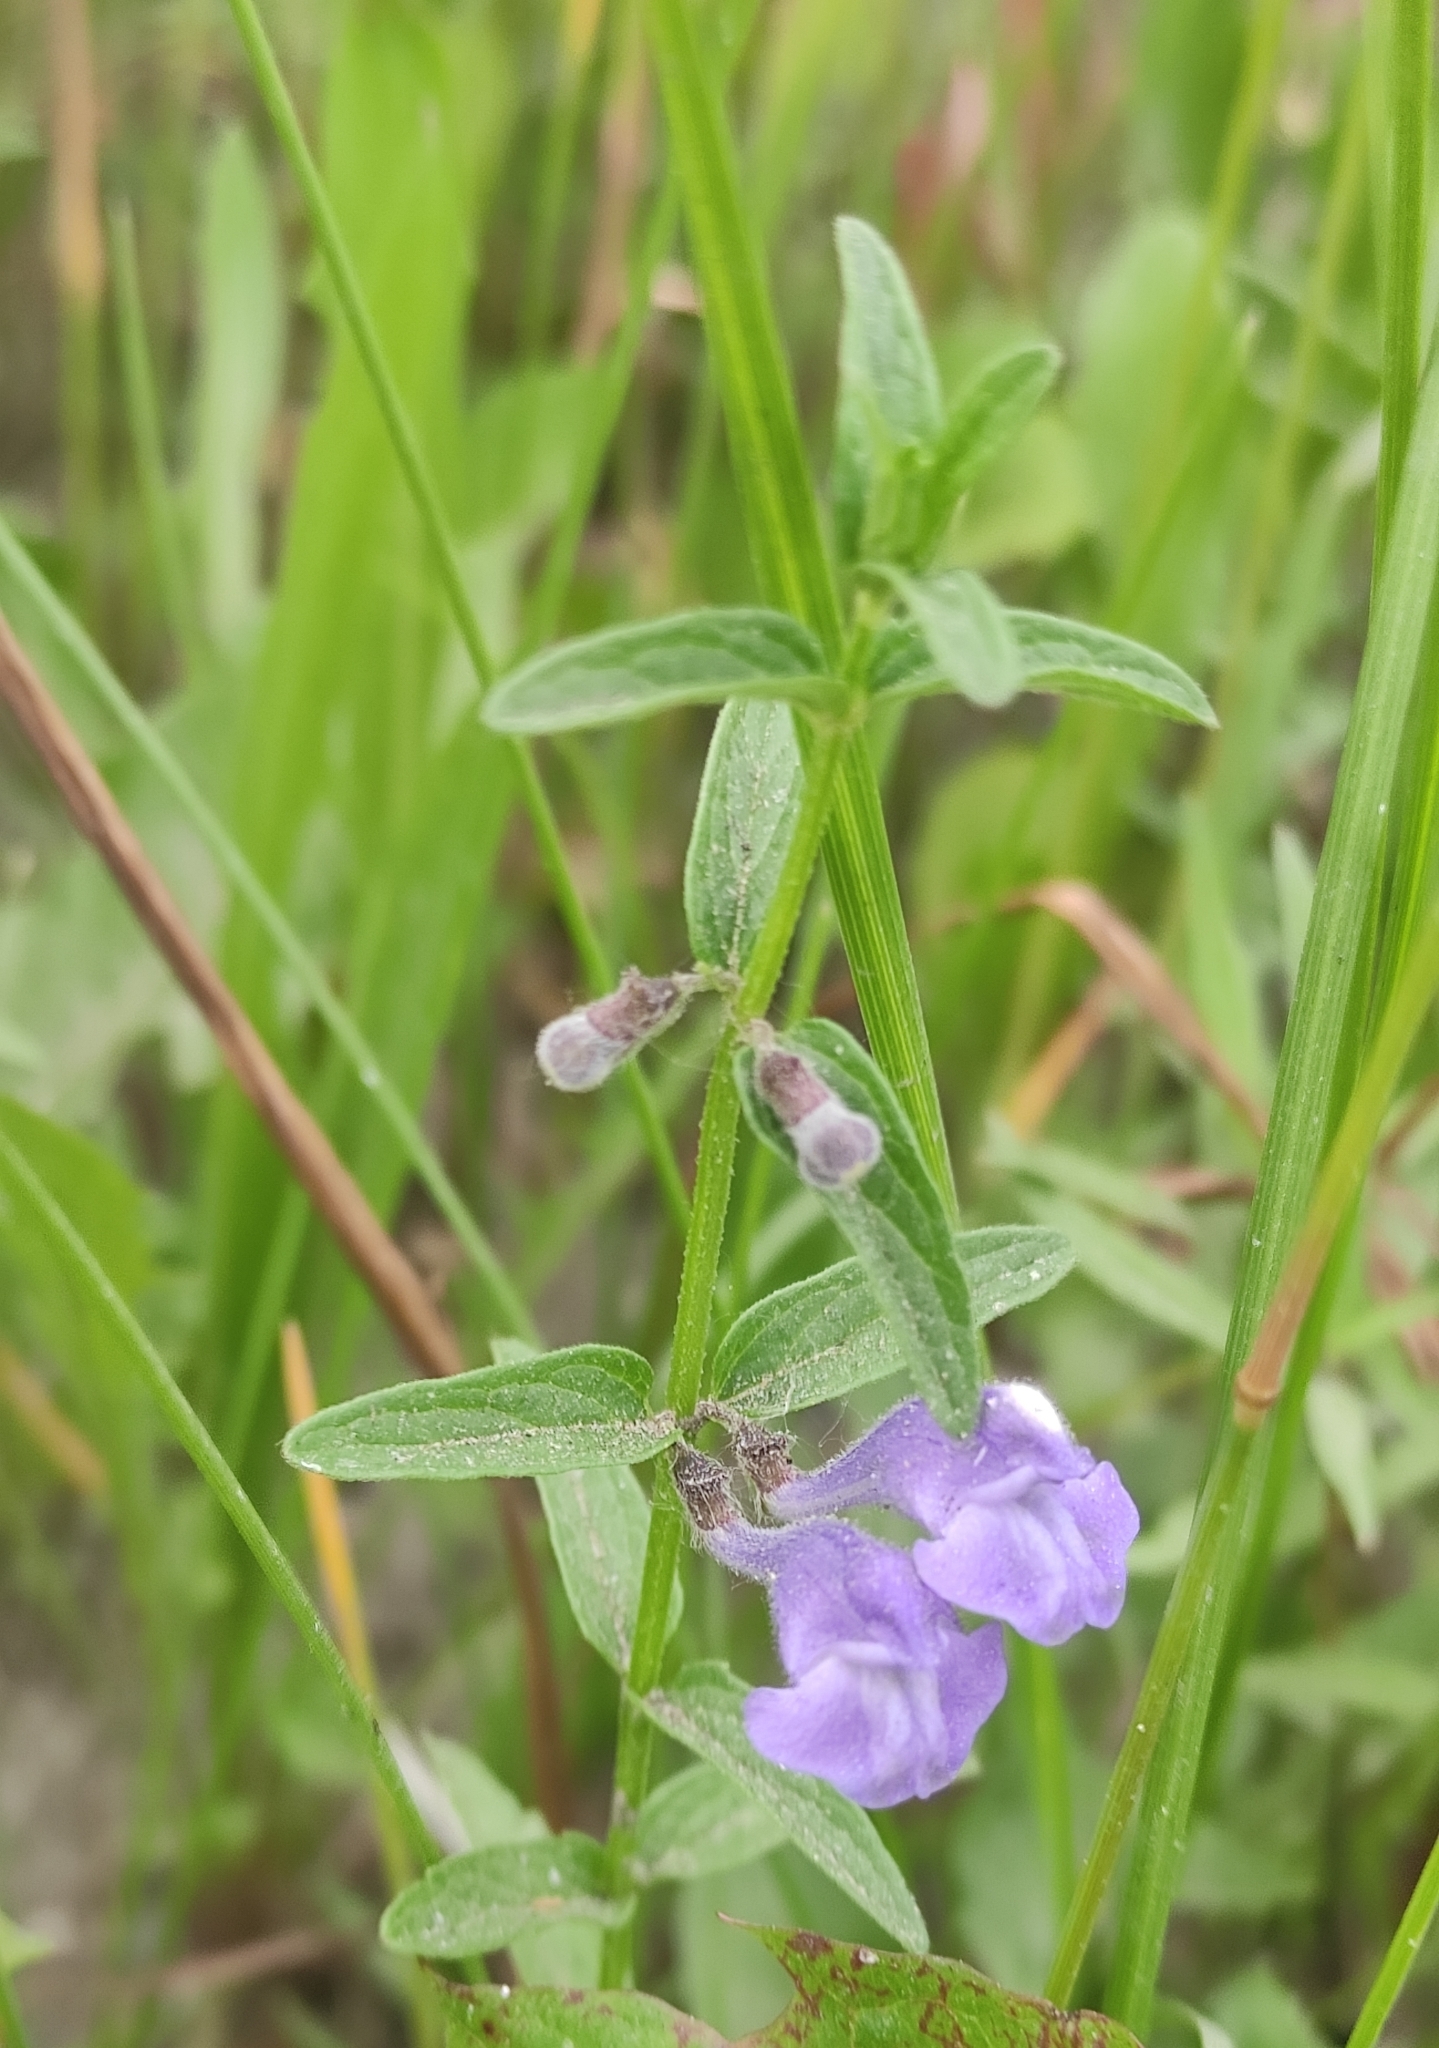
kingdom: Plantae
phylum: Tracheophyta
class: Magnoliopsida
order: Lamiales
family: Lamiaceae
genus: Scutellaria
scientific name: Scutellaria scordiifolia
